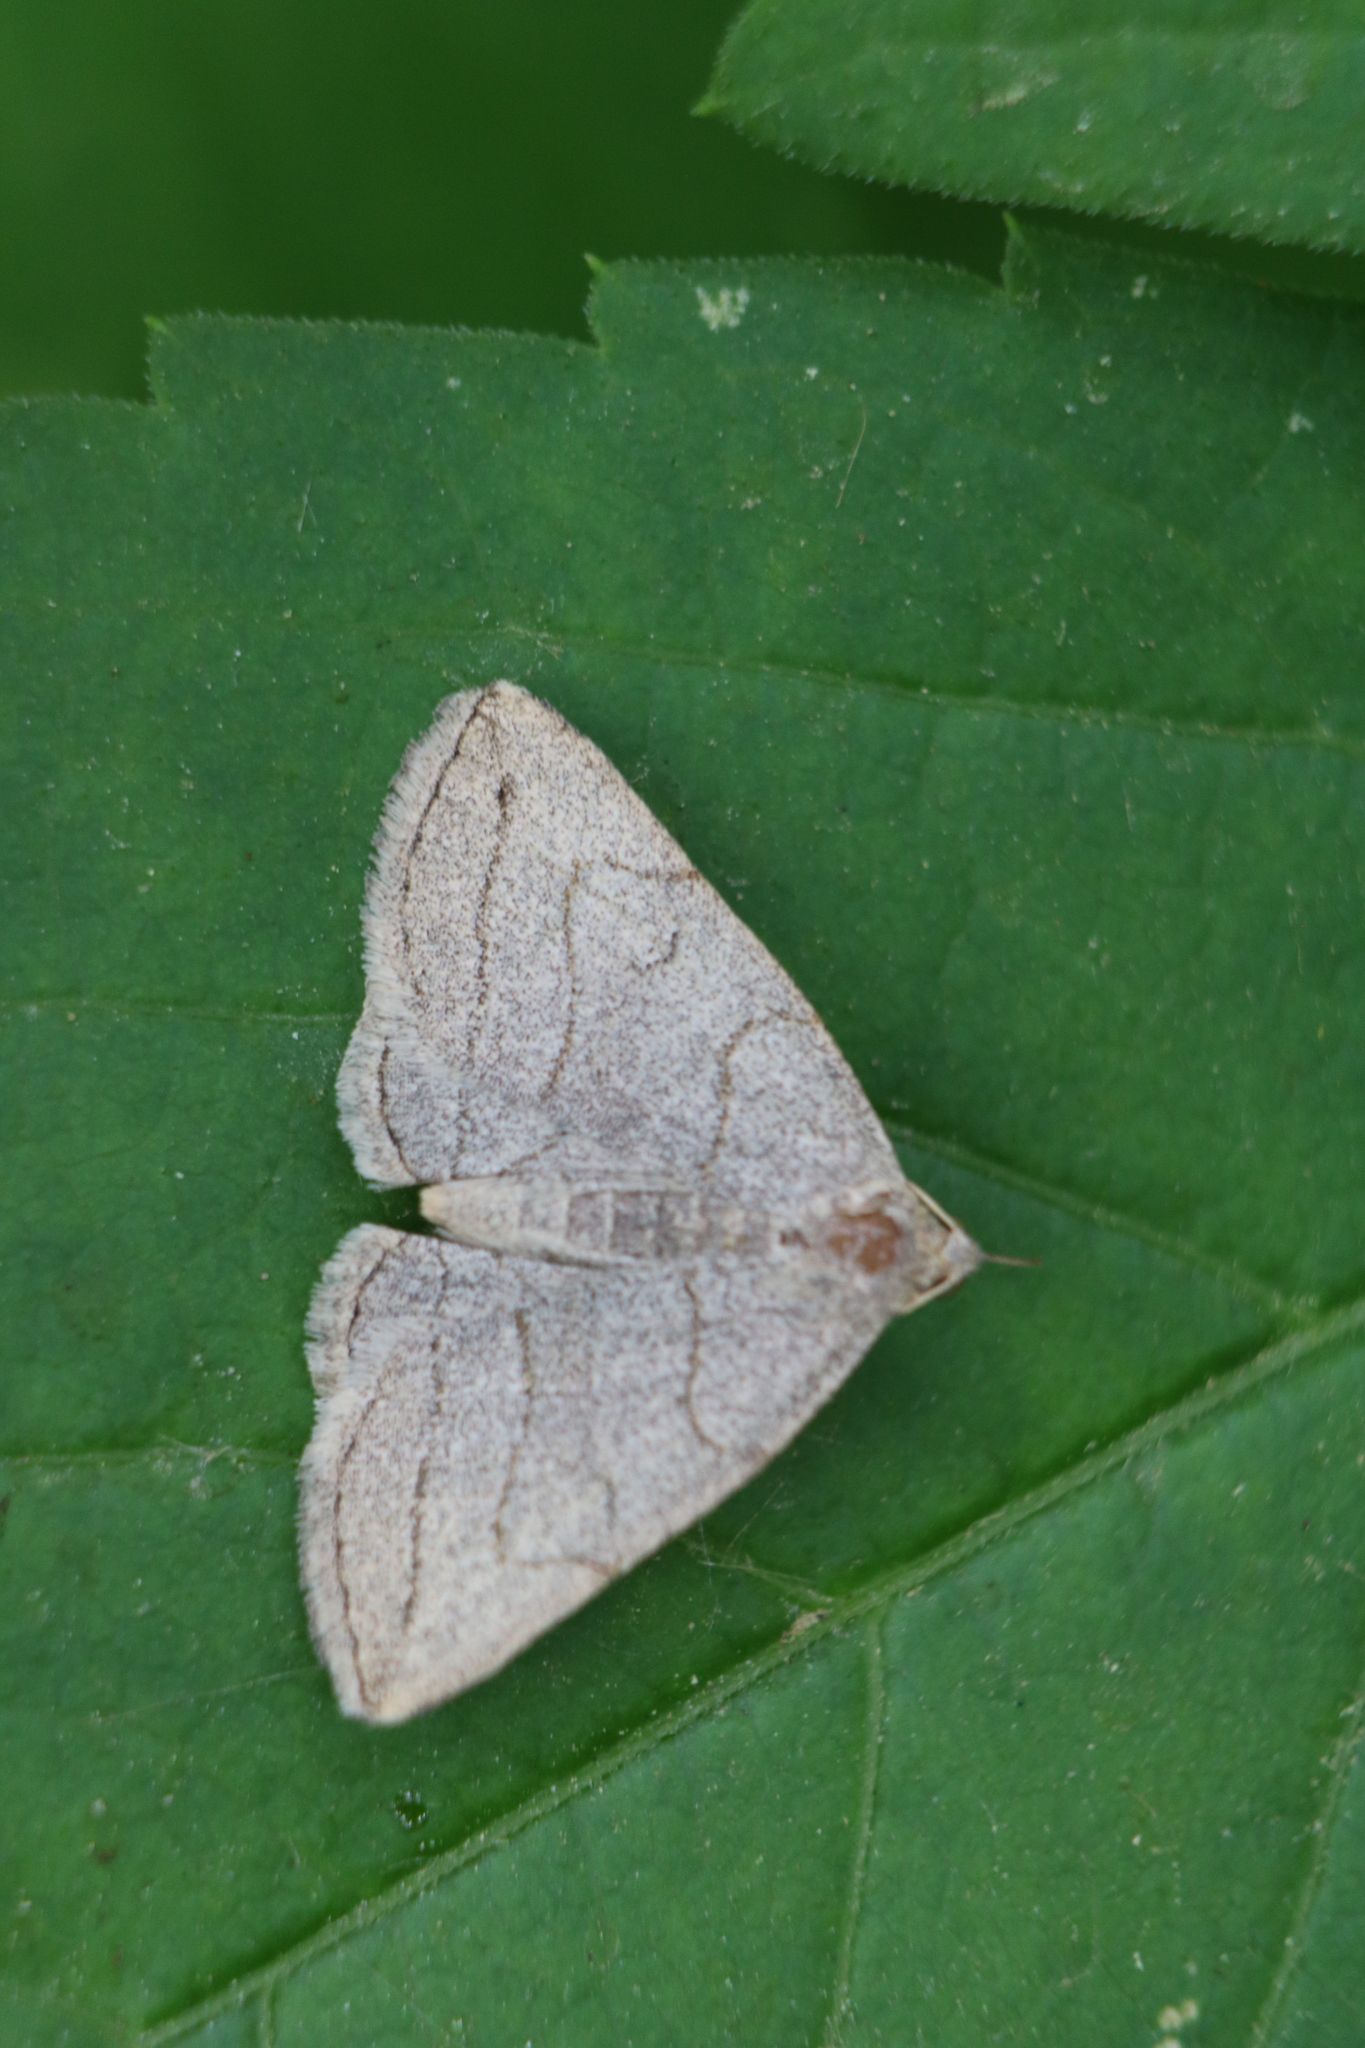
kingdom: Animalia
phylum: Arthropoda
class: Insecta
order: Lepidoptera
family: Erebidae
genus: Zanclognatha
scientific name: Zanclognatha pedipilalis
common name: Grayish fan-foot
